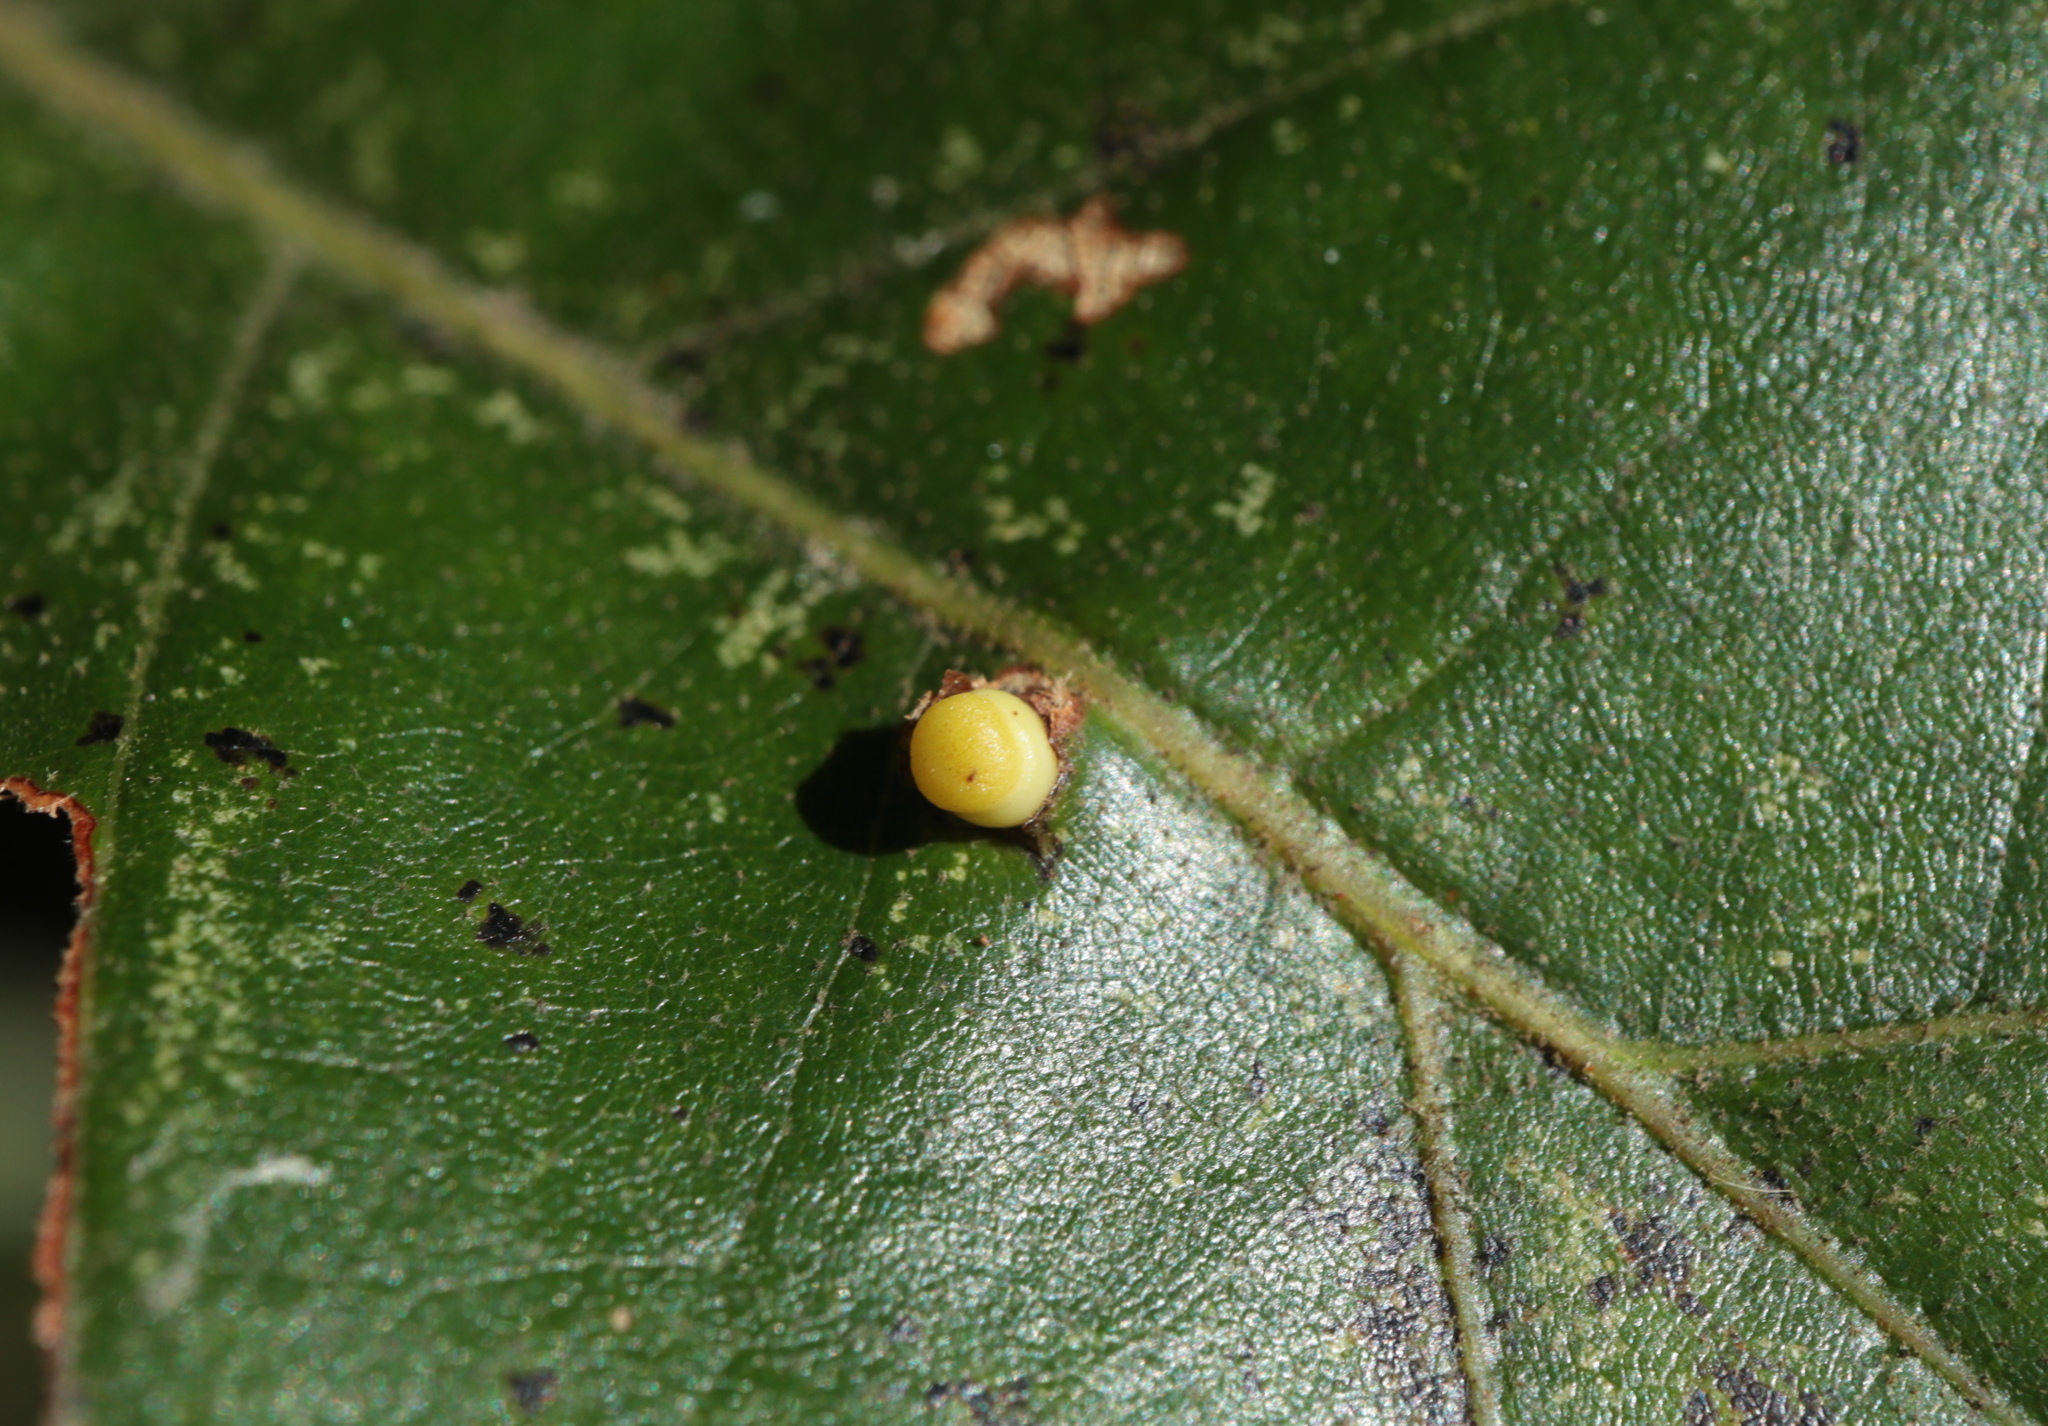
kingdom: Animalia
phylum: Arthropoda
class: Insecta
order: Hymenoptera
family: Cynipidae
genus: Kokkocynips
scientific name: Kokkocynips decidua
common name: Oak wheat gall
